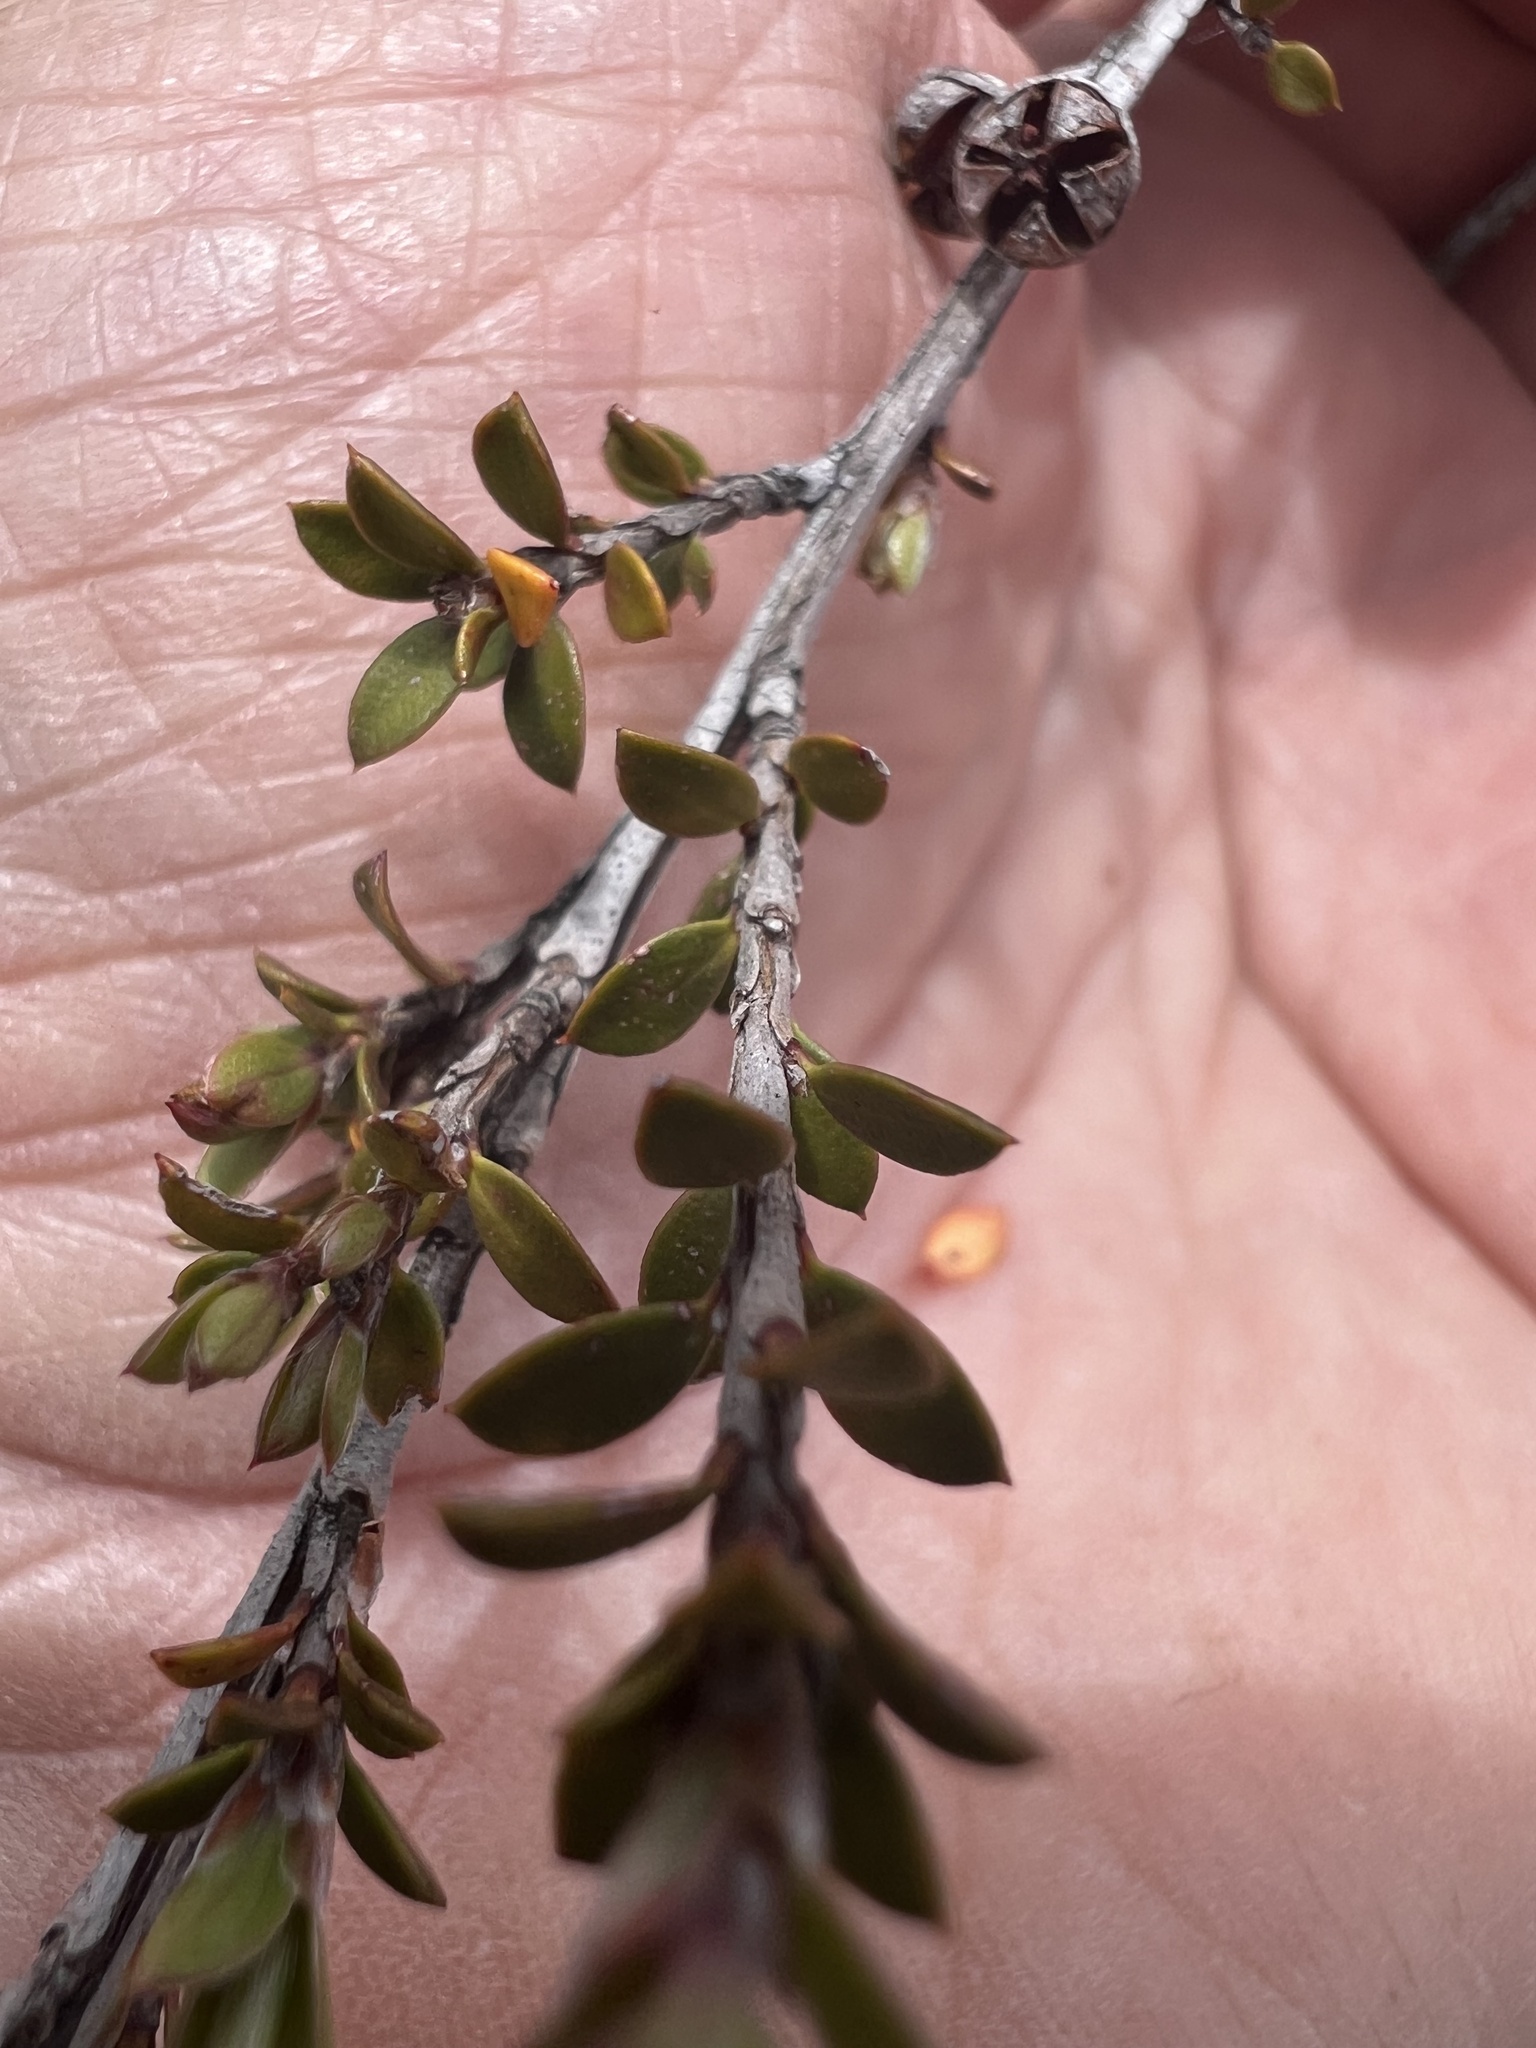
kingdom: Plantae
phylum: Tracheophyta
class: Magnoliopsida
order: Myrtales
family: Myrtaceae
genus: Leptospermum
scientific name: Leptospermum scoparium
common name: Broom tea-tree
